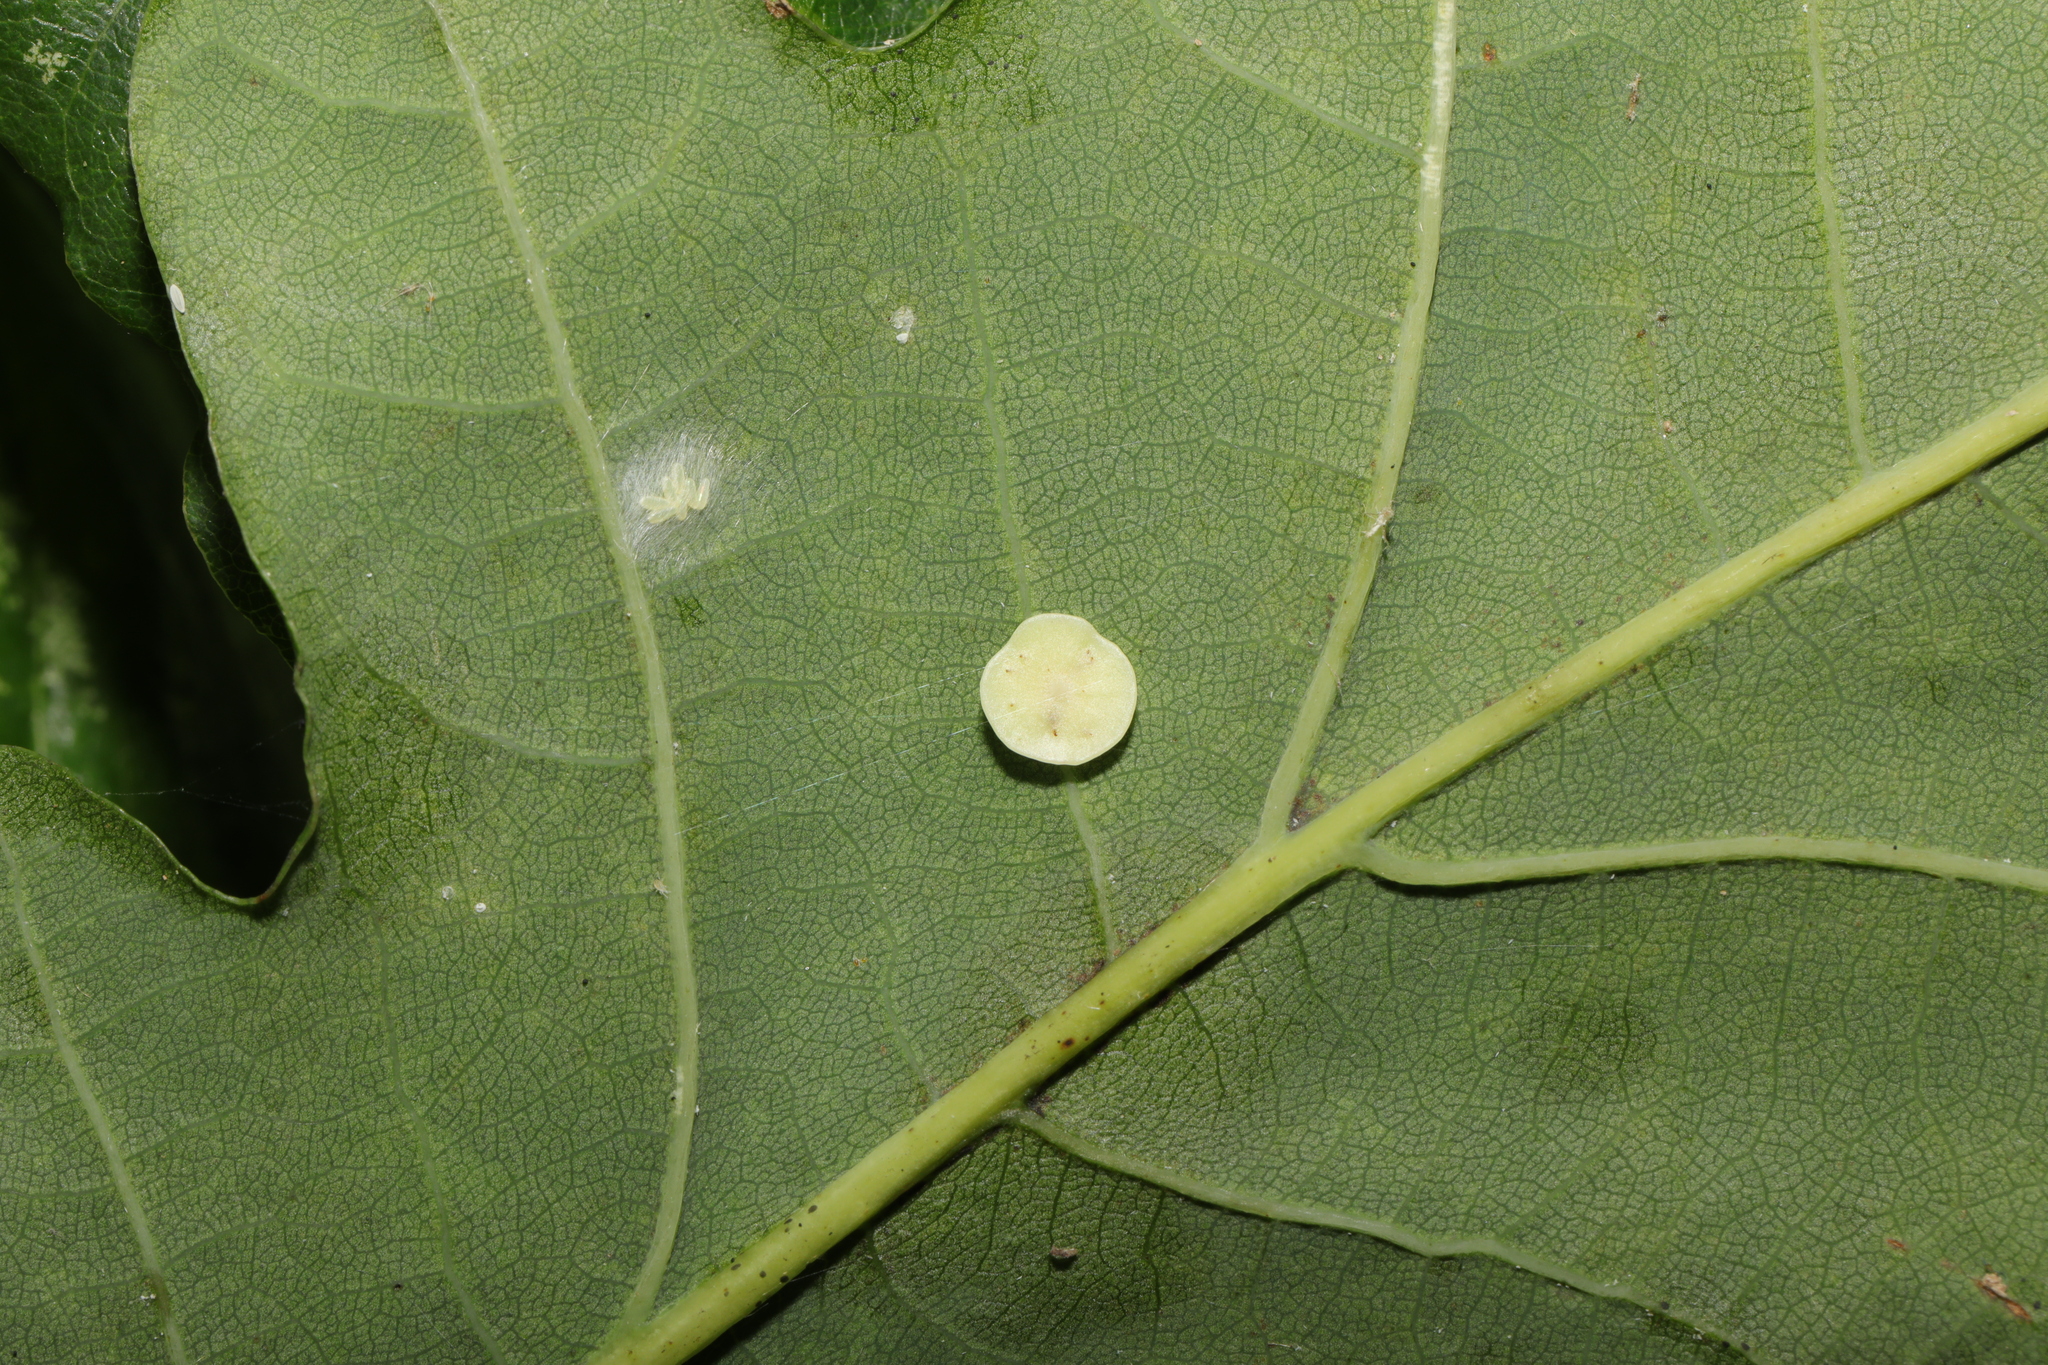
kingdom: Animalia
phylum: Arthropoda
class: Insecta
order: Hymenoptera
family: Cynipidae
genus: Neuroterus
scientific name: Neuroterus albipes
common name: Smooth spangle gall
